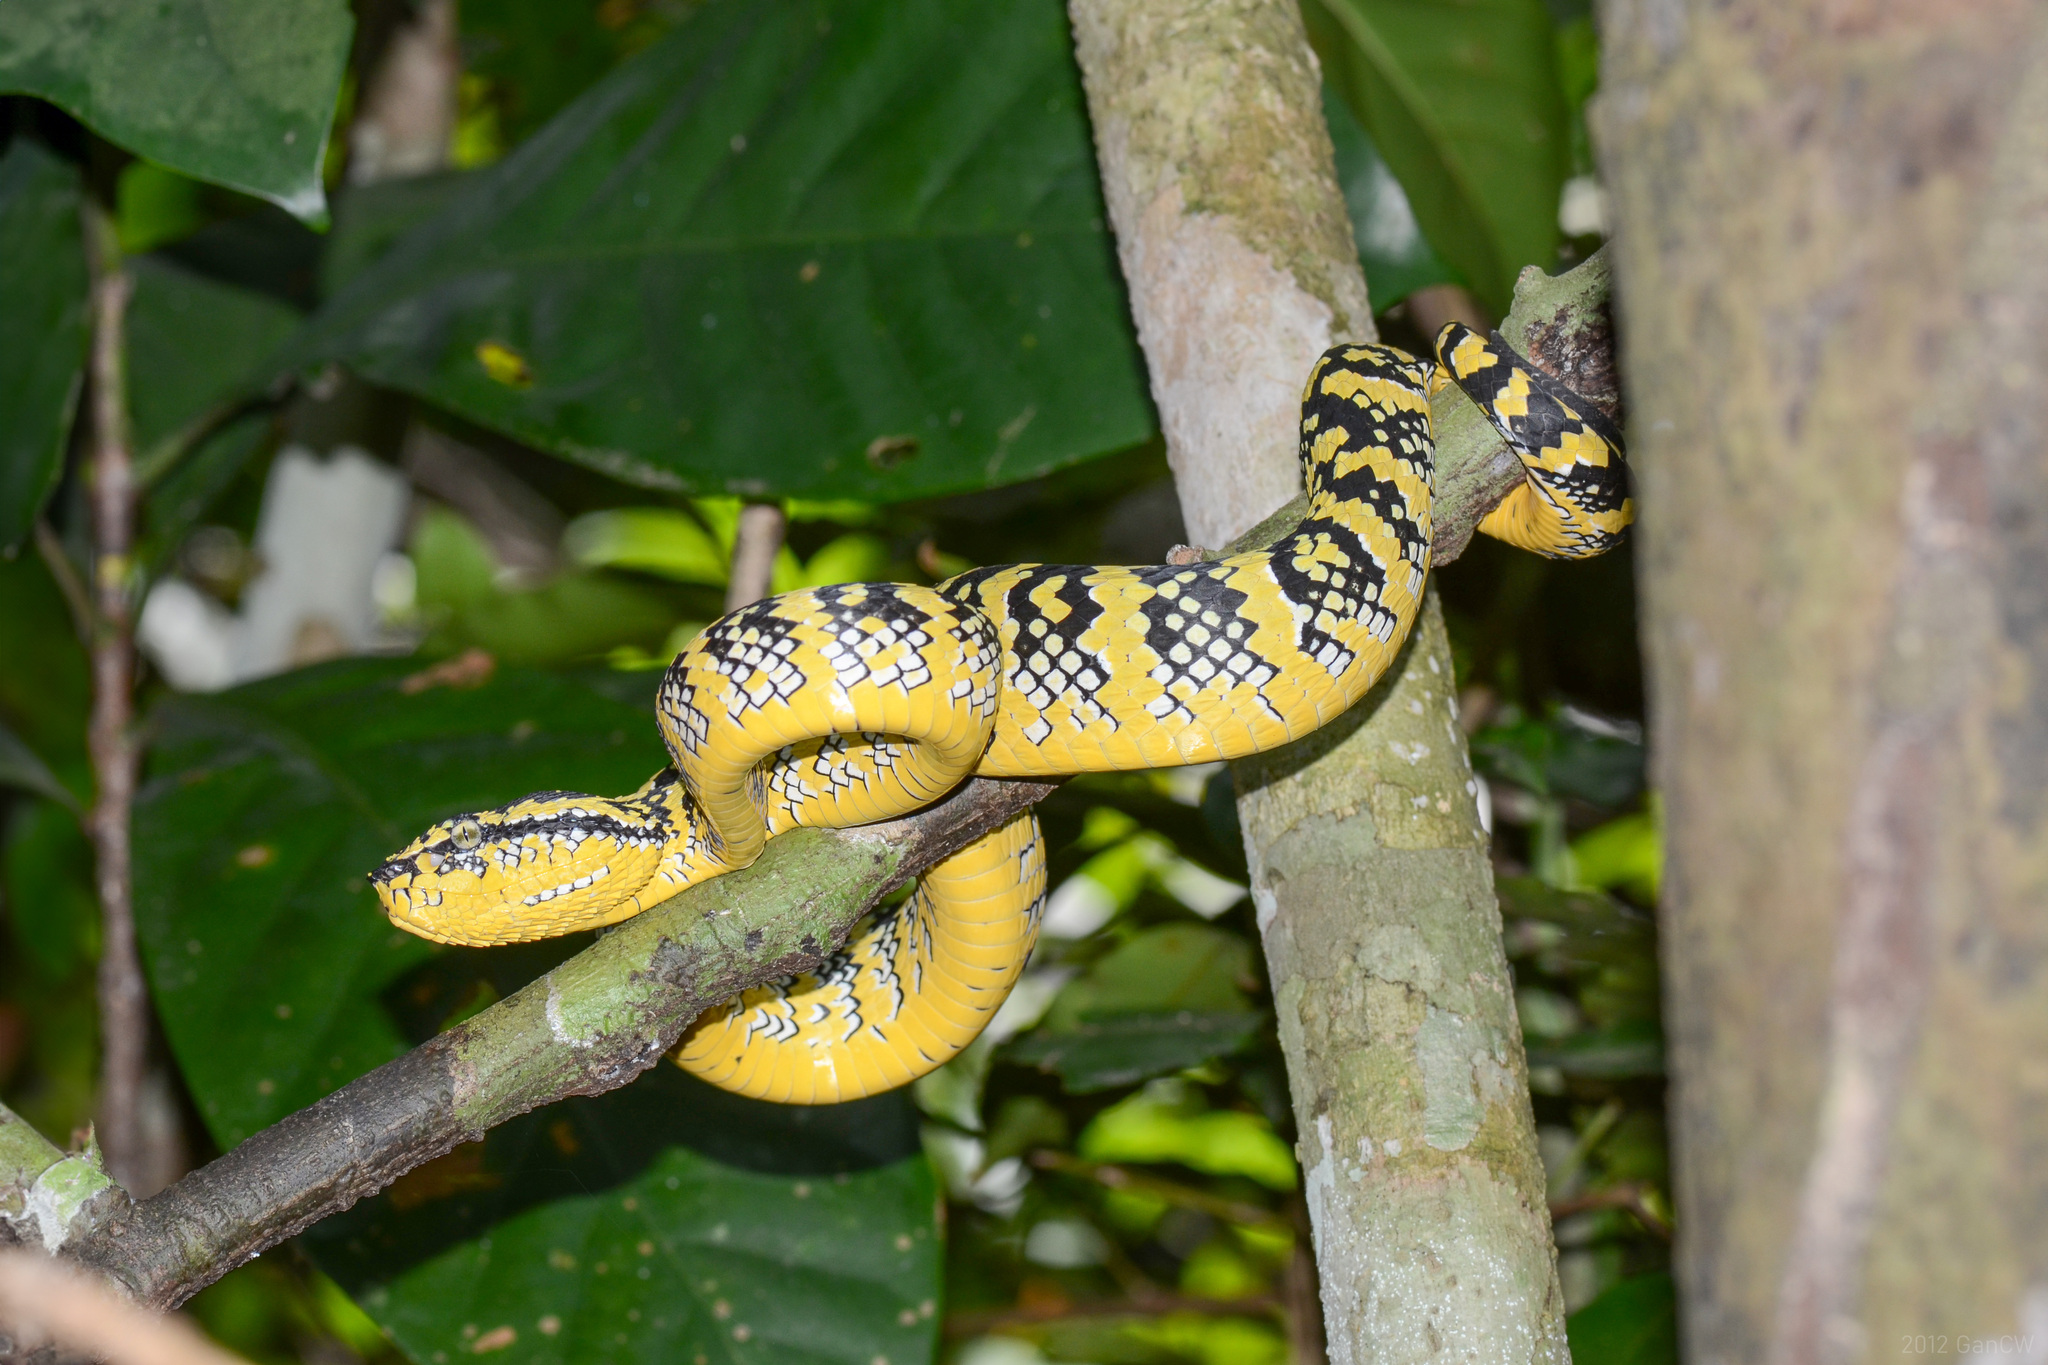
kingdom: Animalia
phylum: Chordata
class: Squamata
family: Viperidae
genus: Tropidolaemus
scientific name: Tropidolaemus wagleri
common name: Wagler's palm viper
